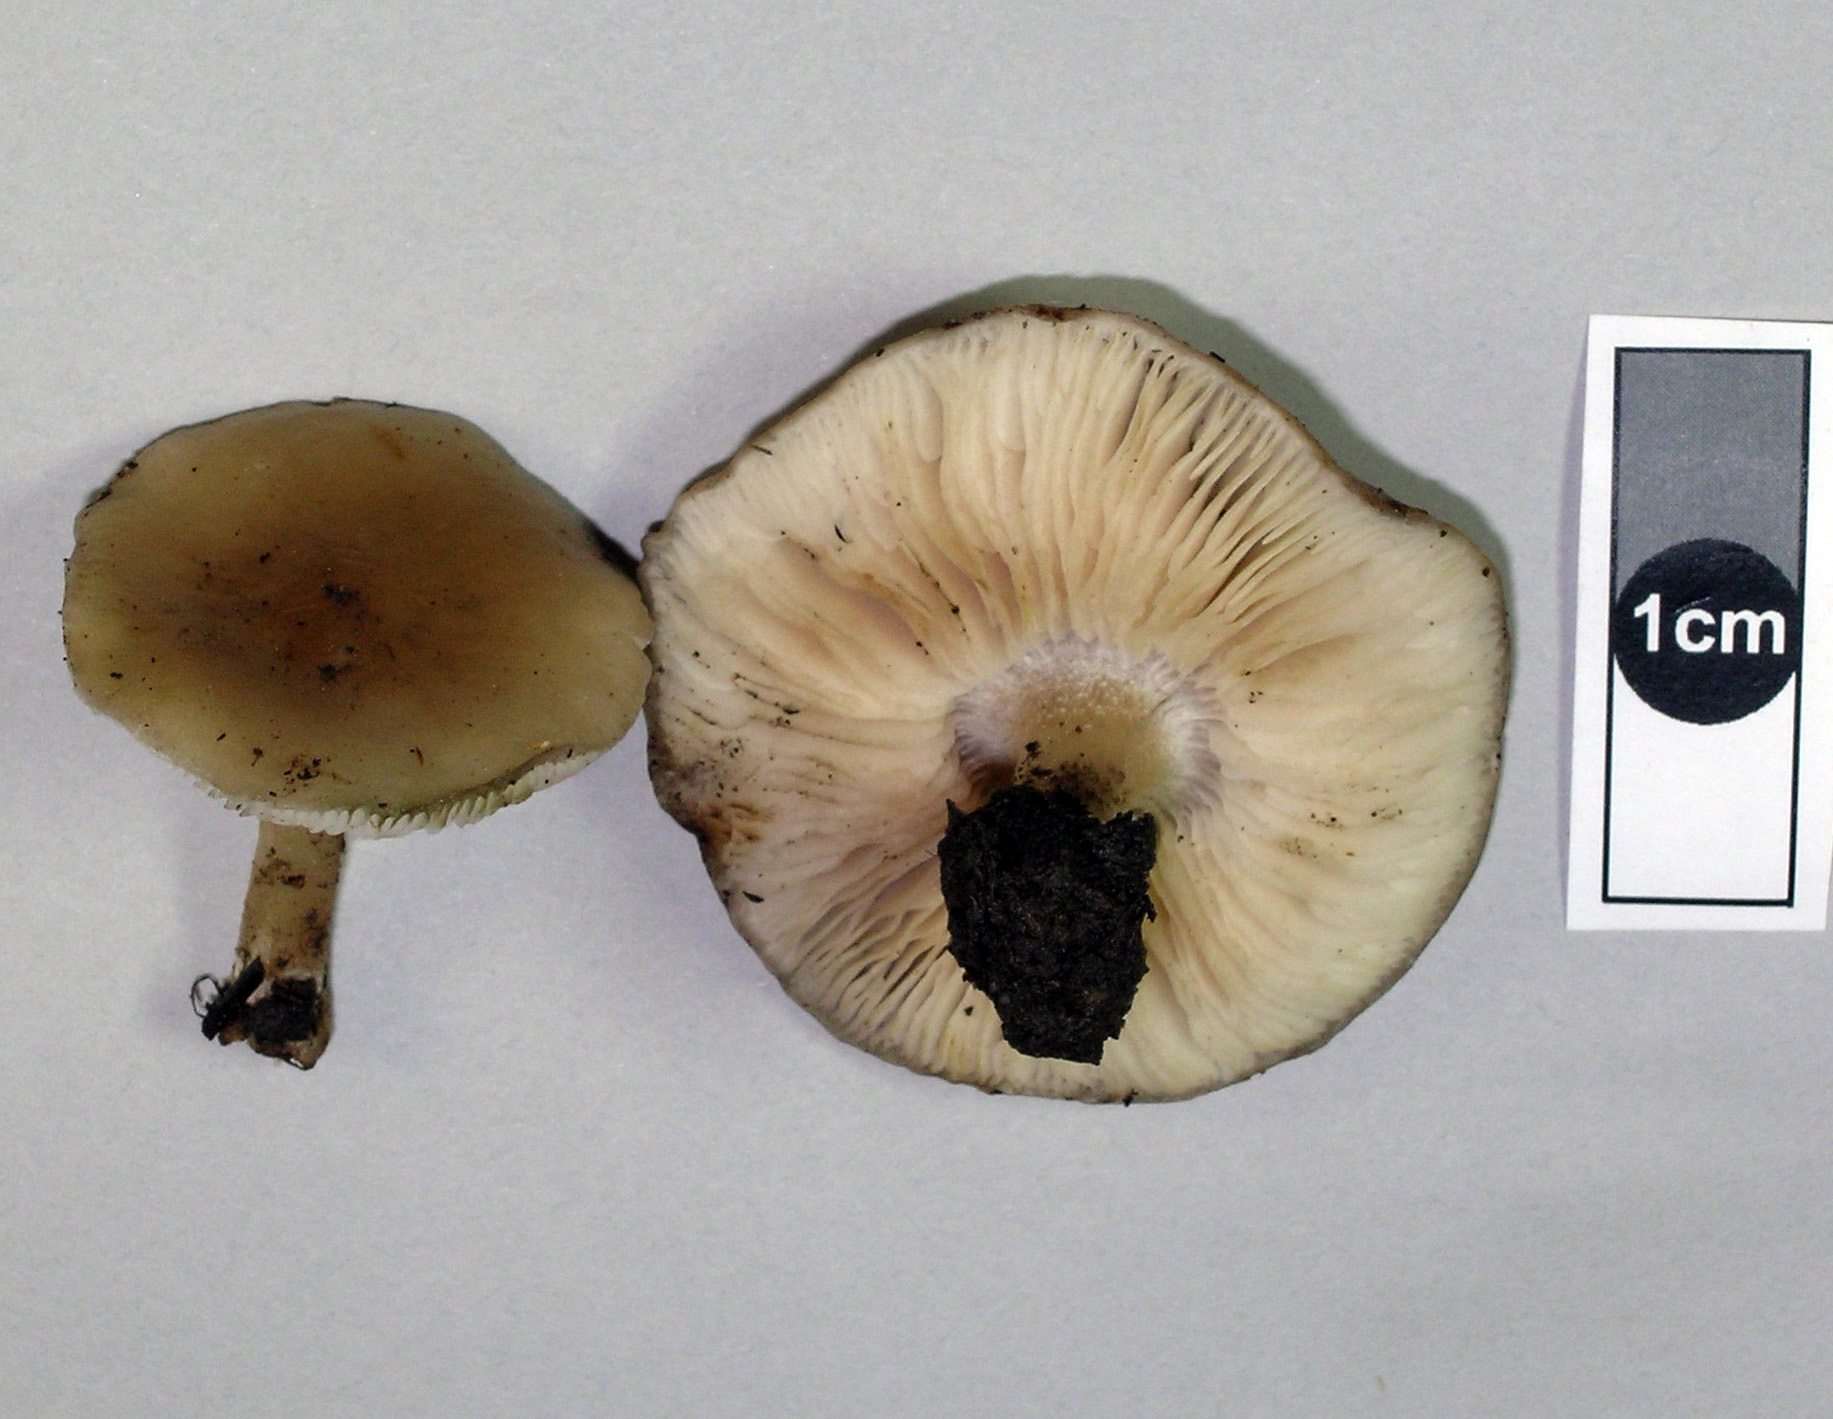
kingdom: Fungi
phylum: Basidiomycota
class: Agaricomycetes
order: Agaricales
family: Tricholomataceae
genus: Melanoleuca
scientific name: Melanoleuca polioleuca
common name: Common cavalier
